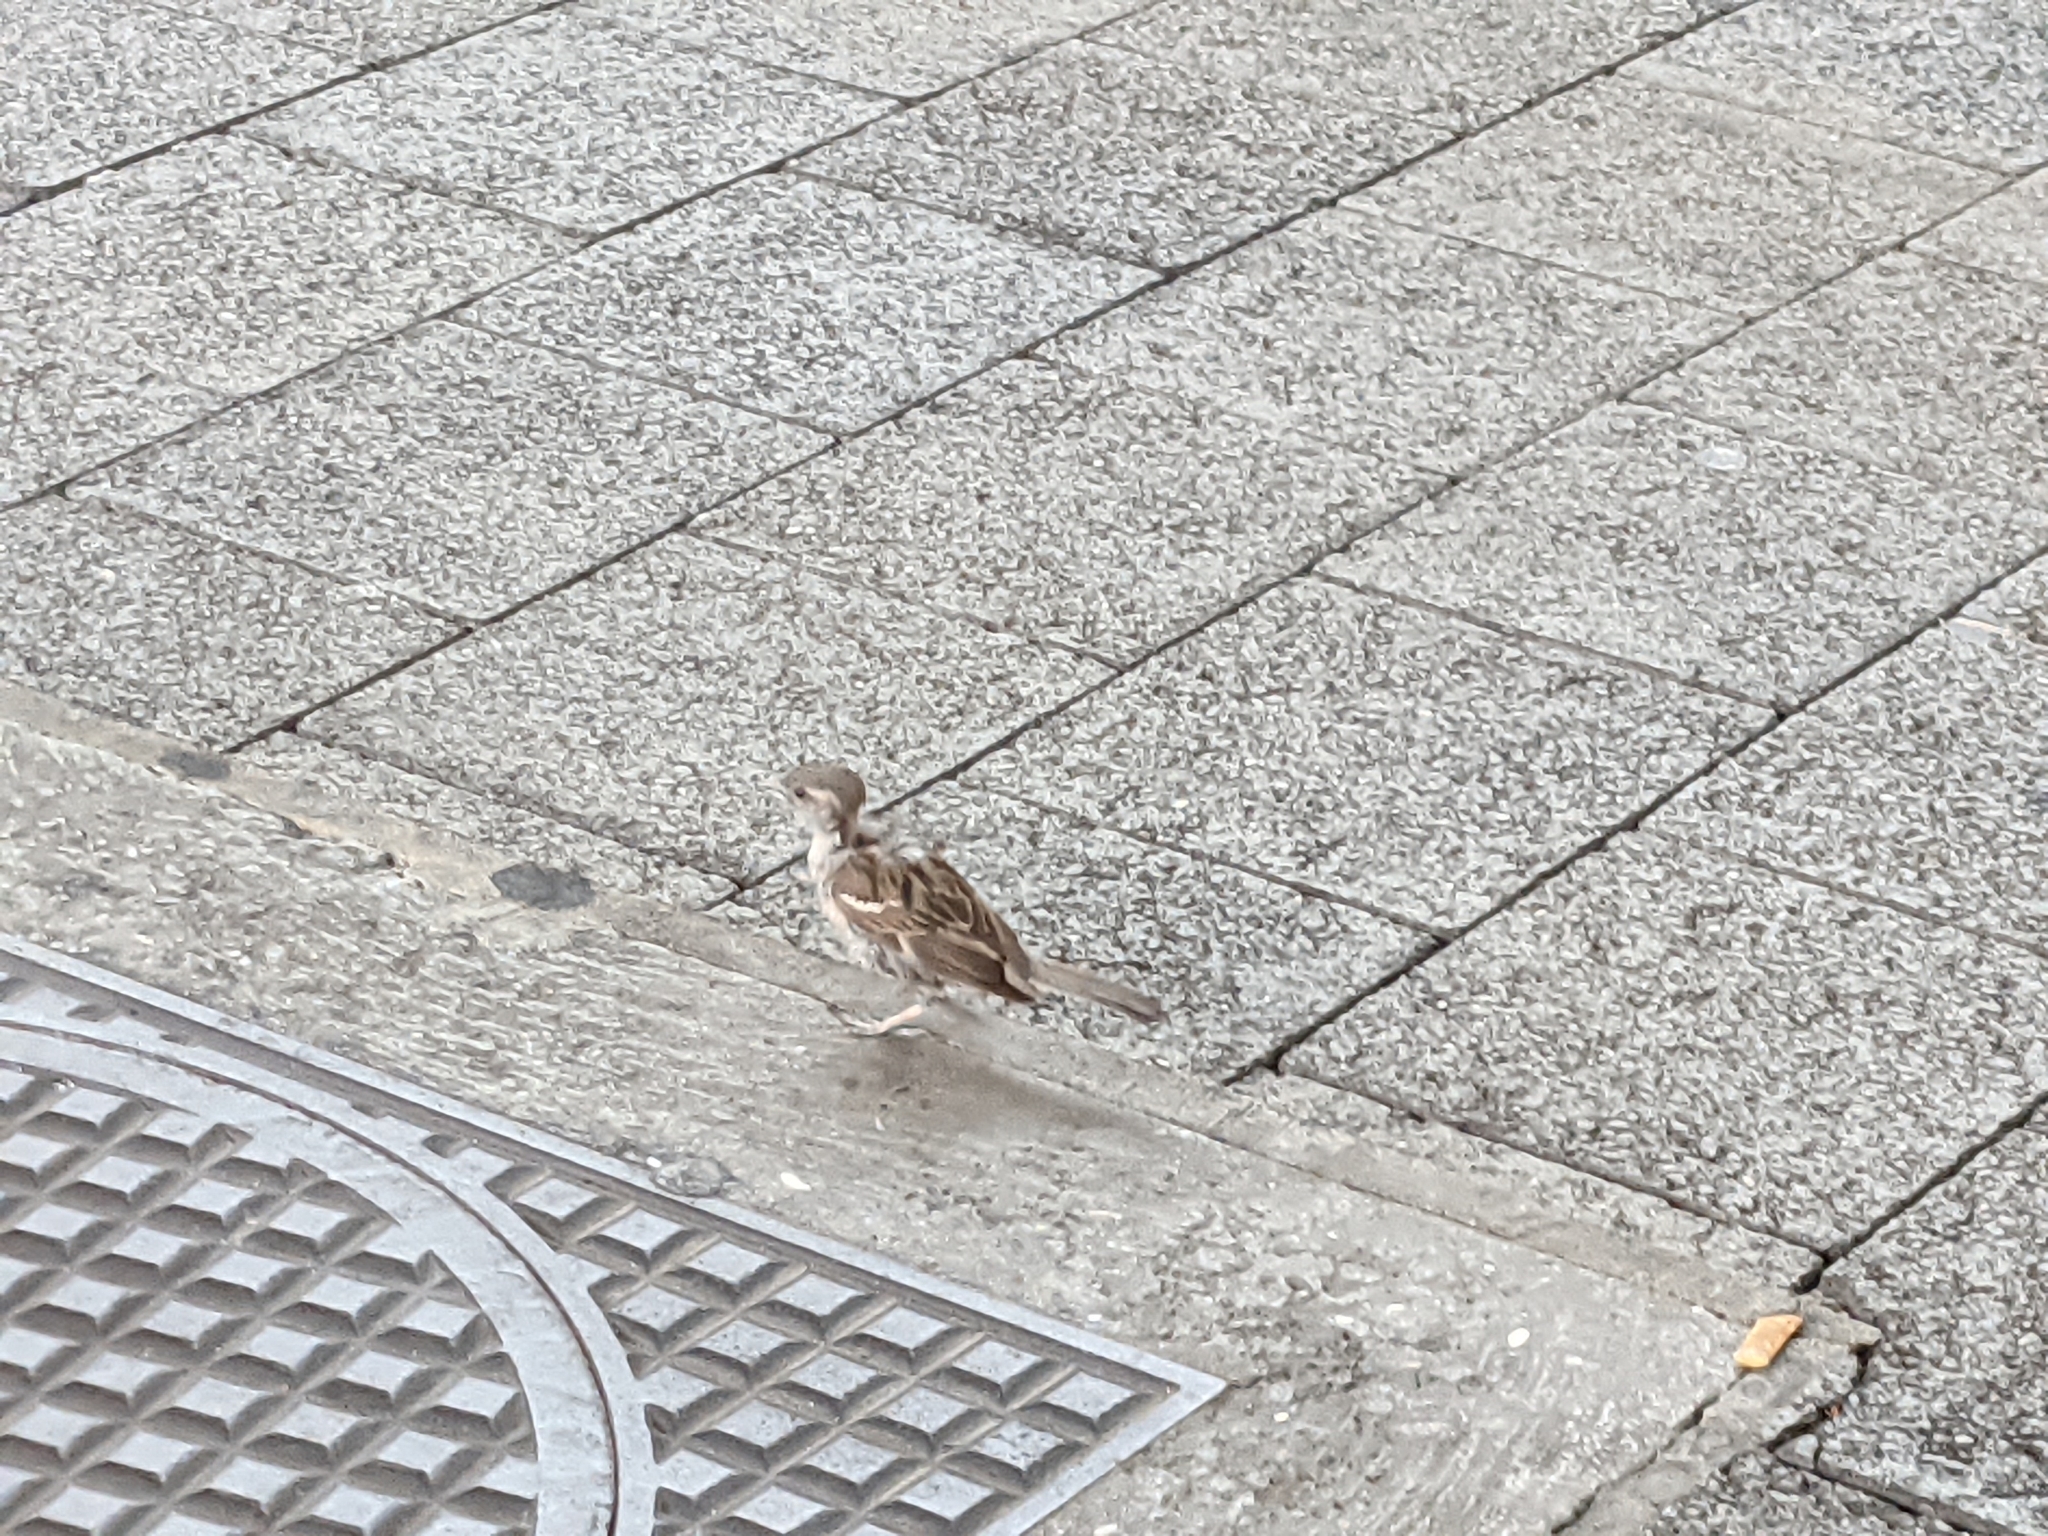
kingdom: Animalia
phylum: Chordata
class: Aves
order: Passeriformes
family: Passeridae
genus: Passer
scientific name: Passer domesticus
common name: House sparrow
